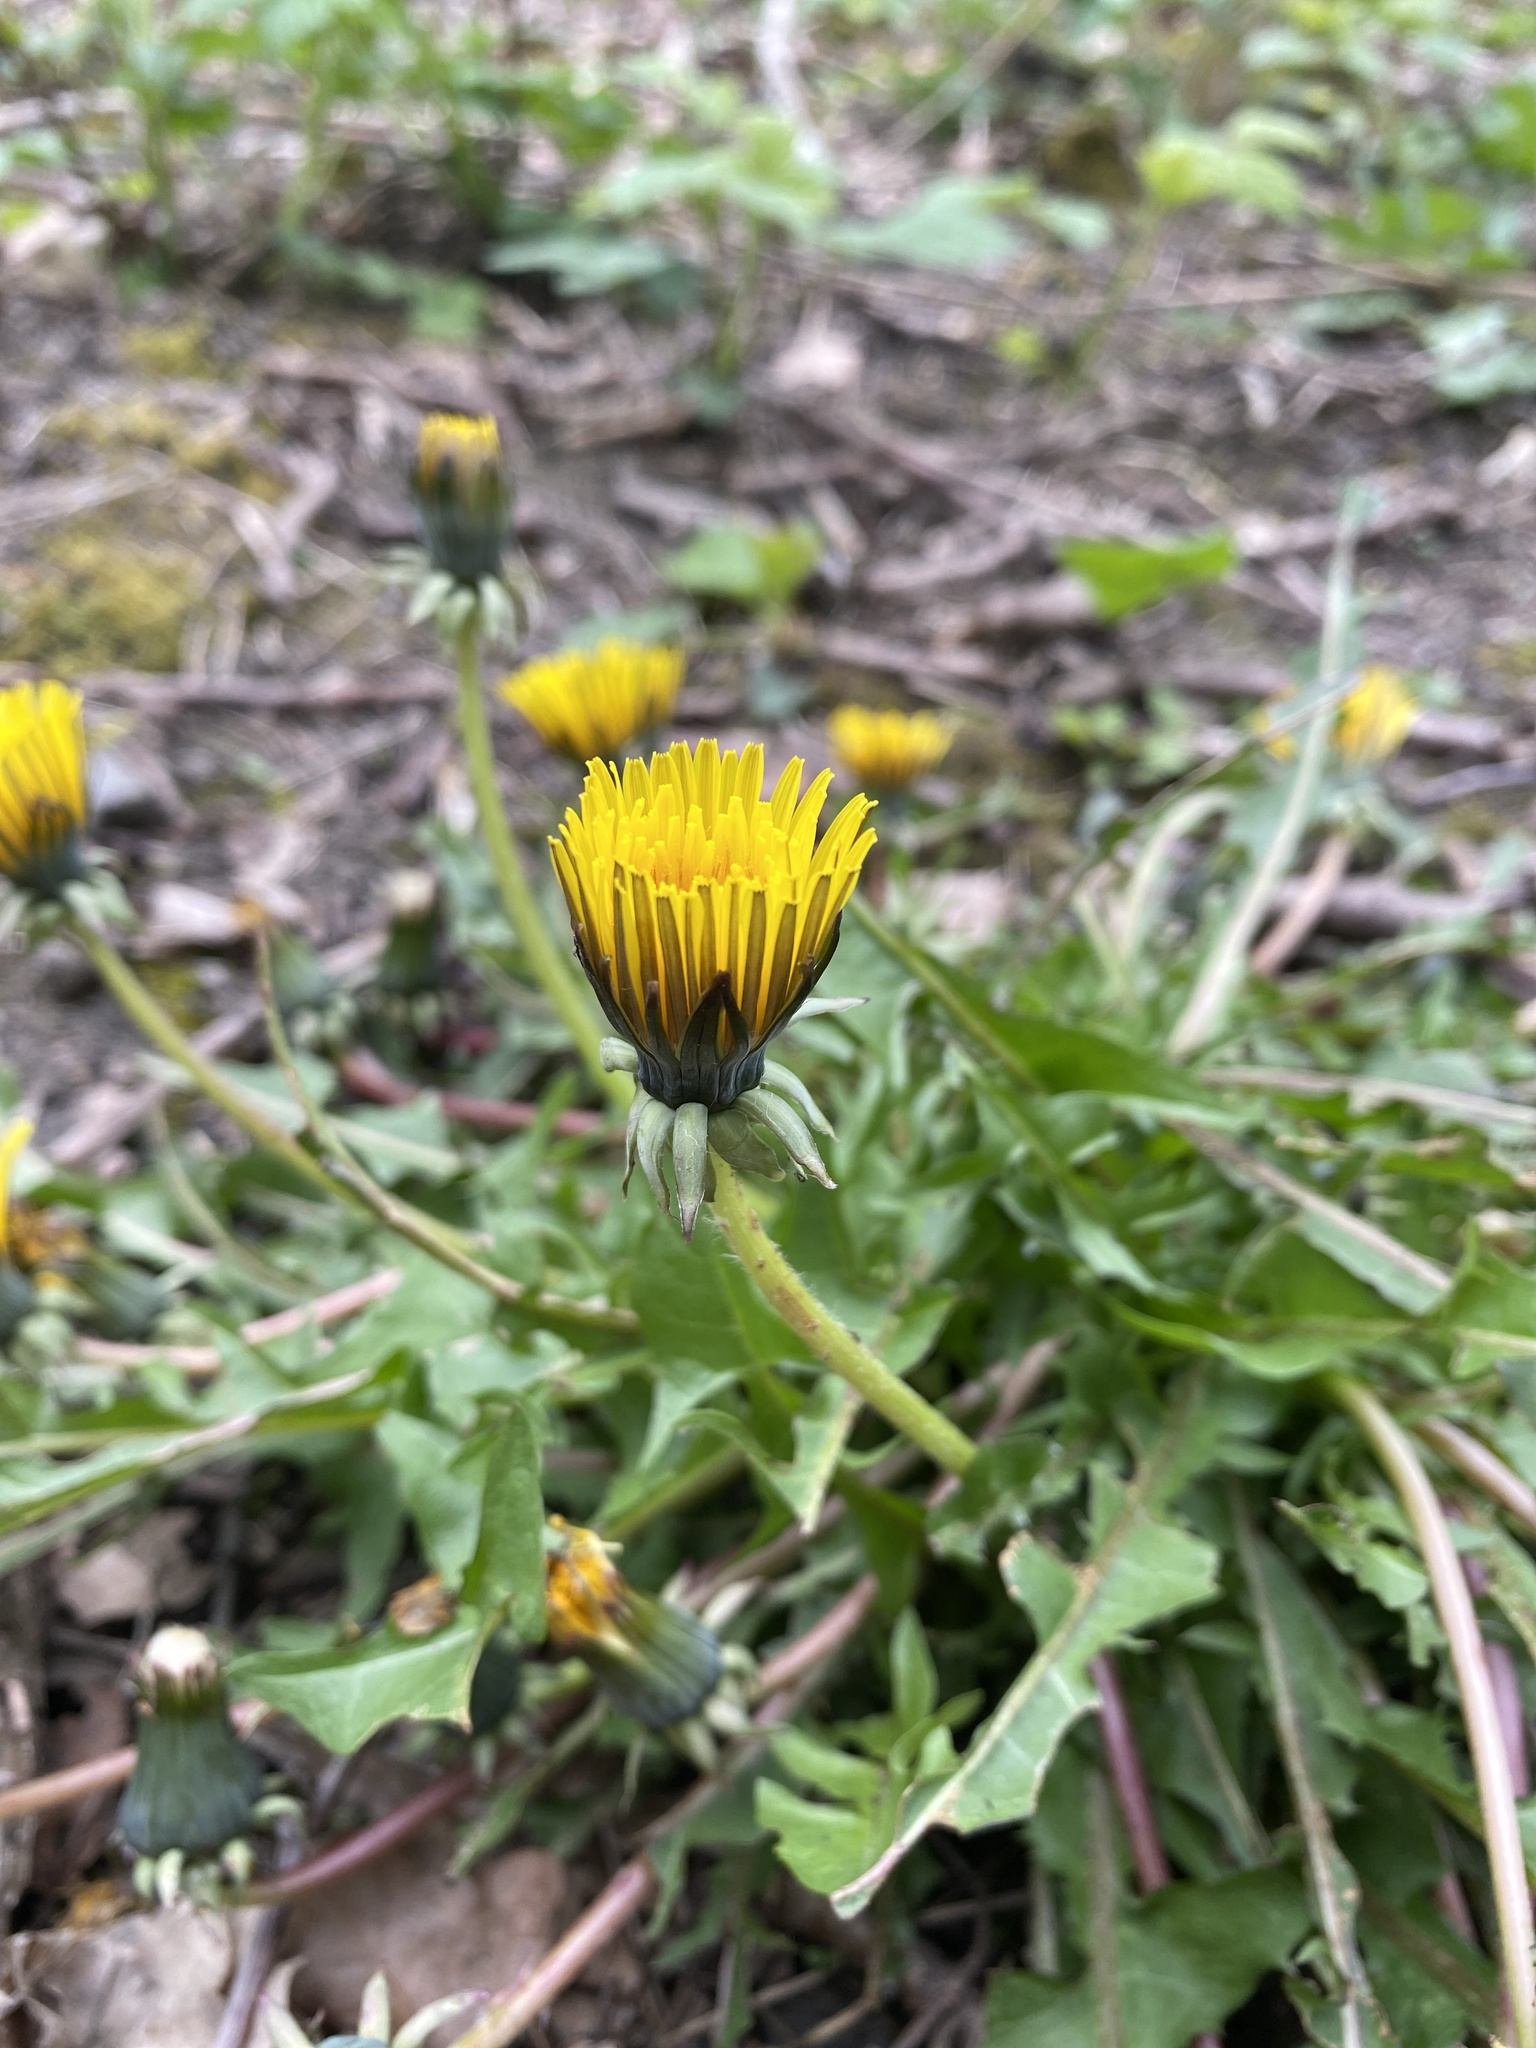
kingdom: Plantae
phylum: Tracheophyta
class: Magnoliopsida
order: Asterales
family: Asteraceae
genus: Taraxacum
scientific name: Taraxacum officinale
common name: Common dandelion
